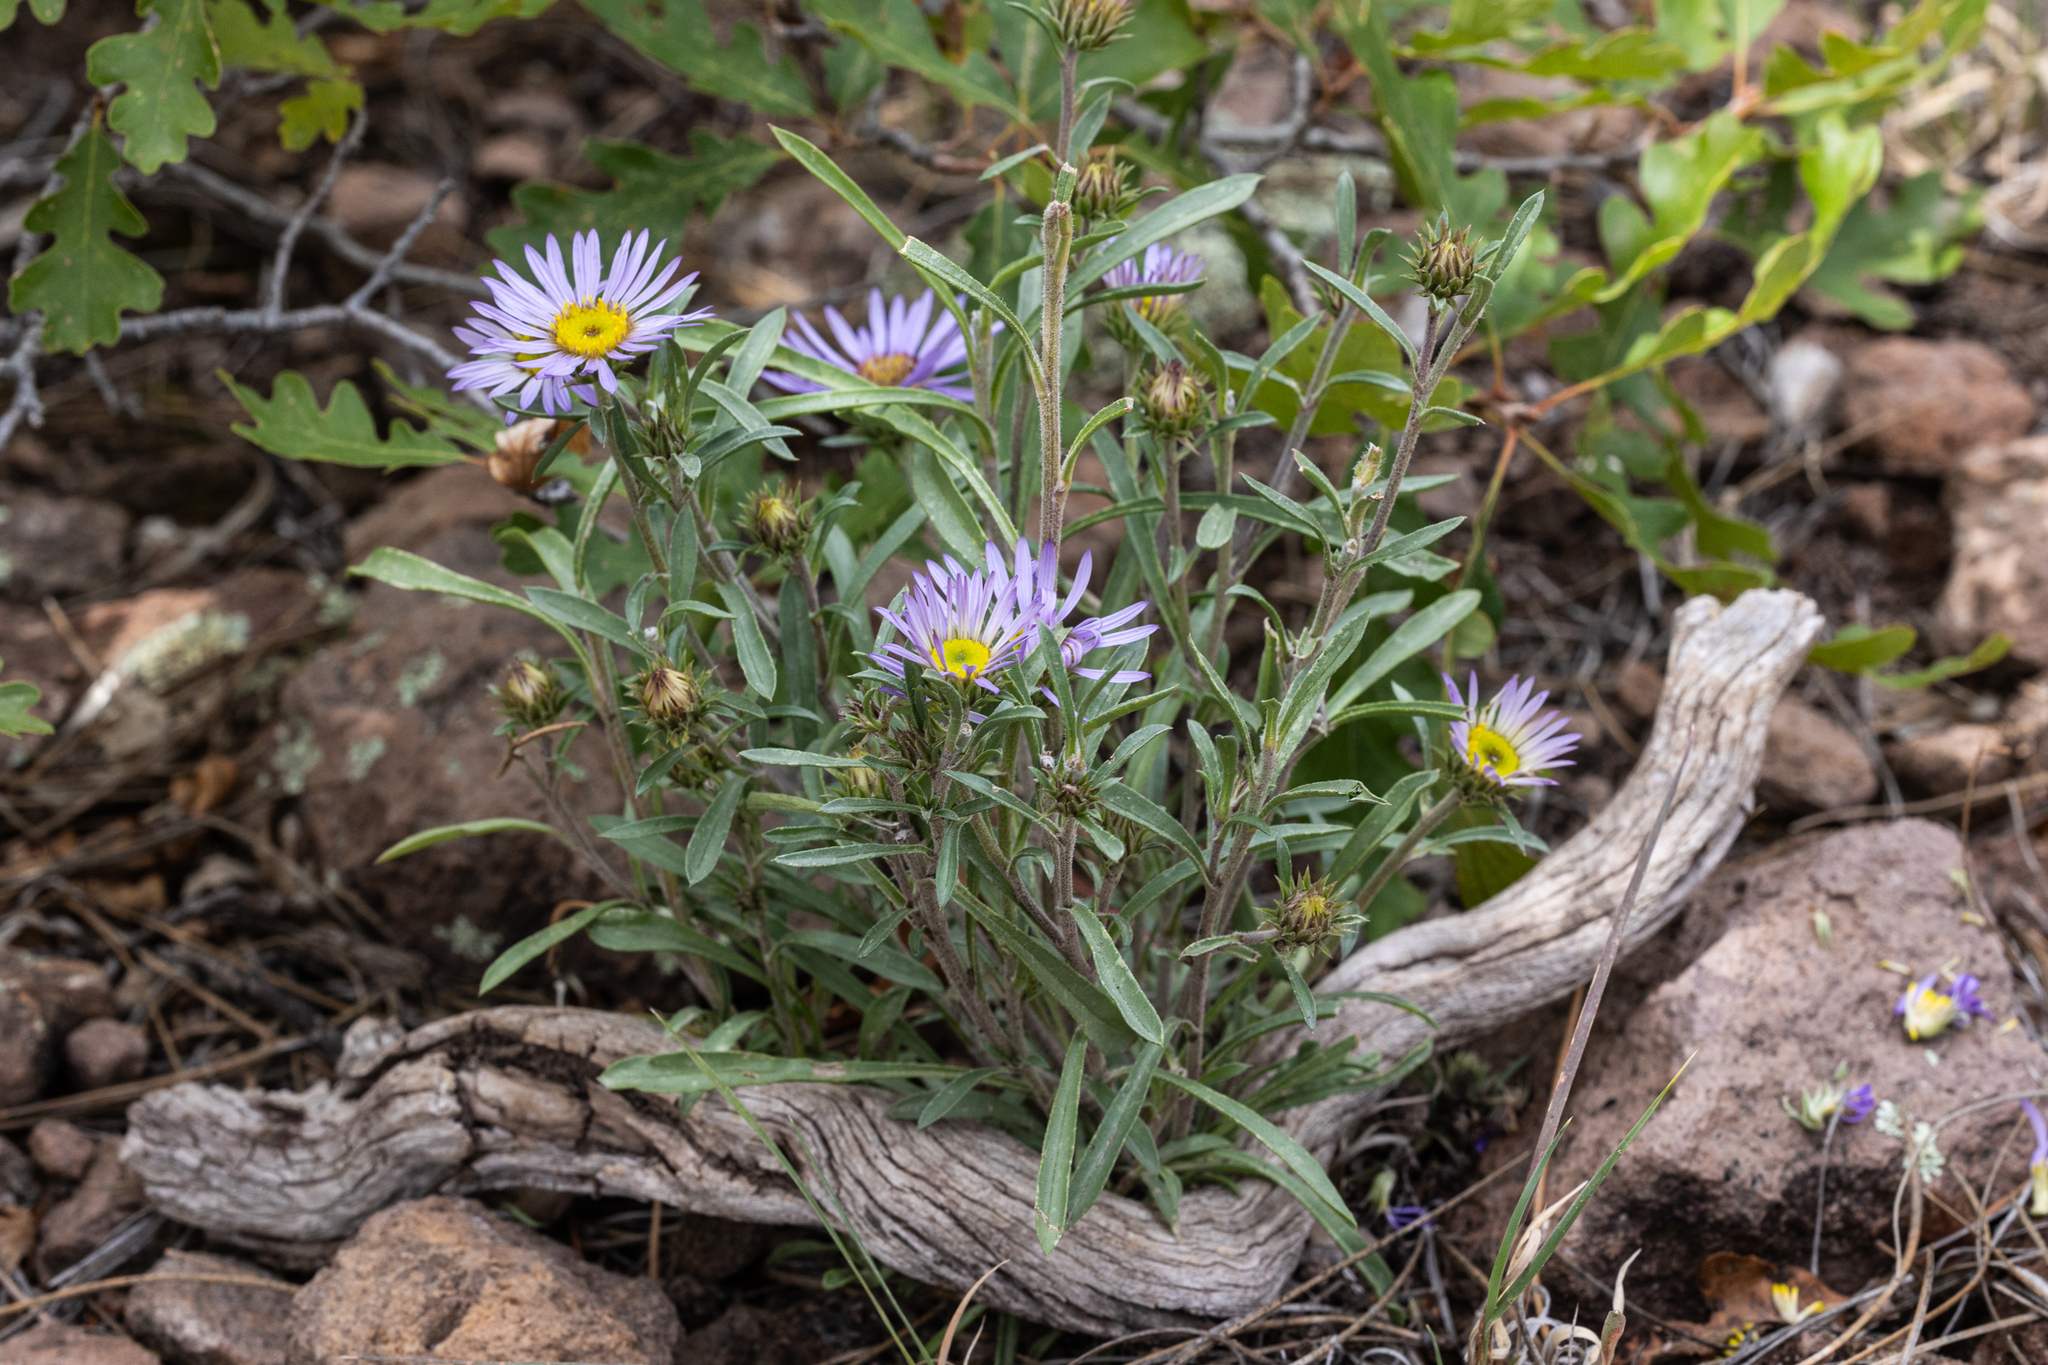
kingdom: Plantae
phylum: Tracheophyta
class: Magnoliopsida
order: Asterales
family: Asteraceae
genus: Townsendia
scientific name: Townsendia eximia
